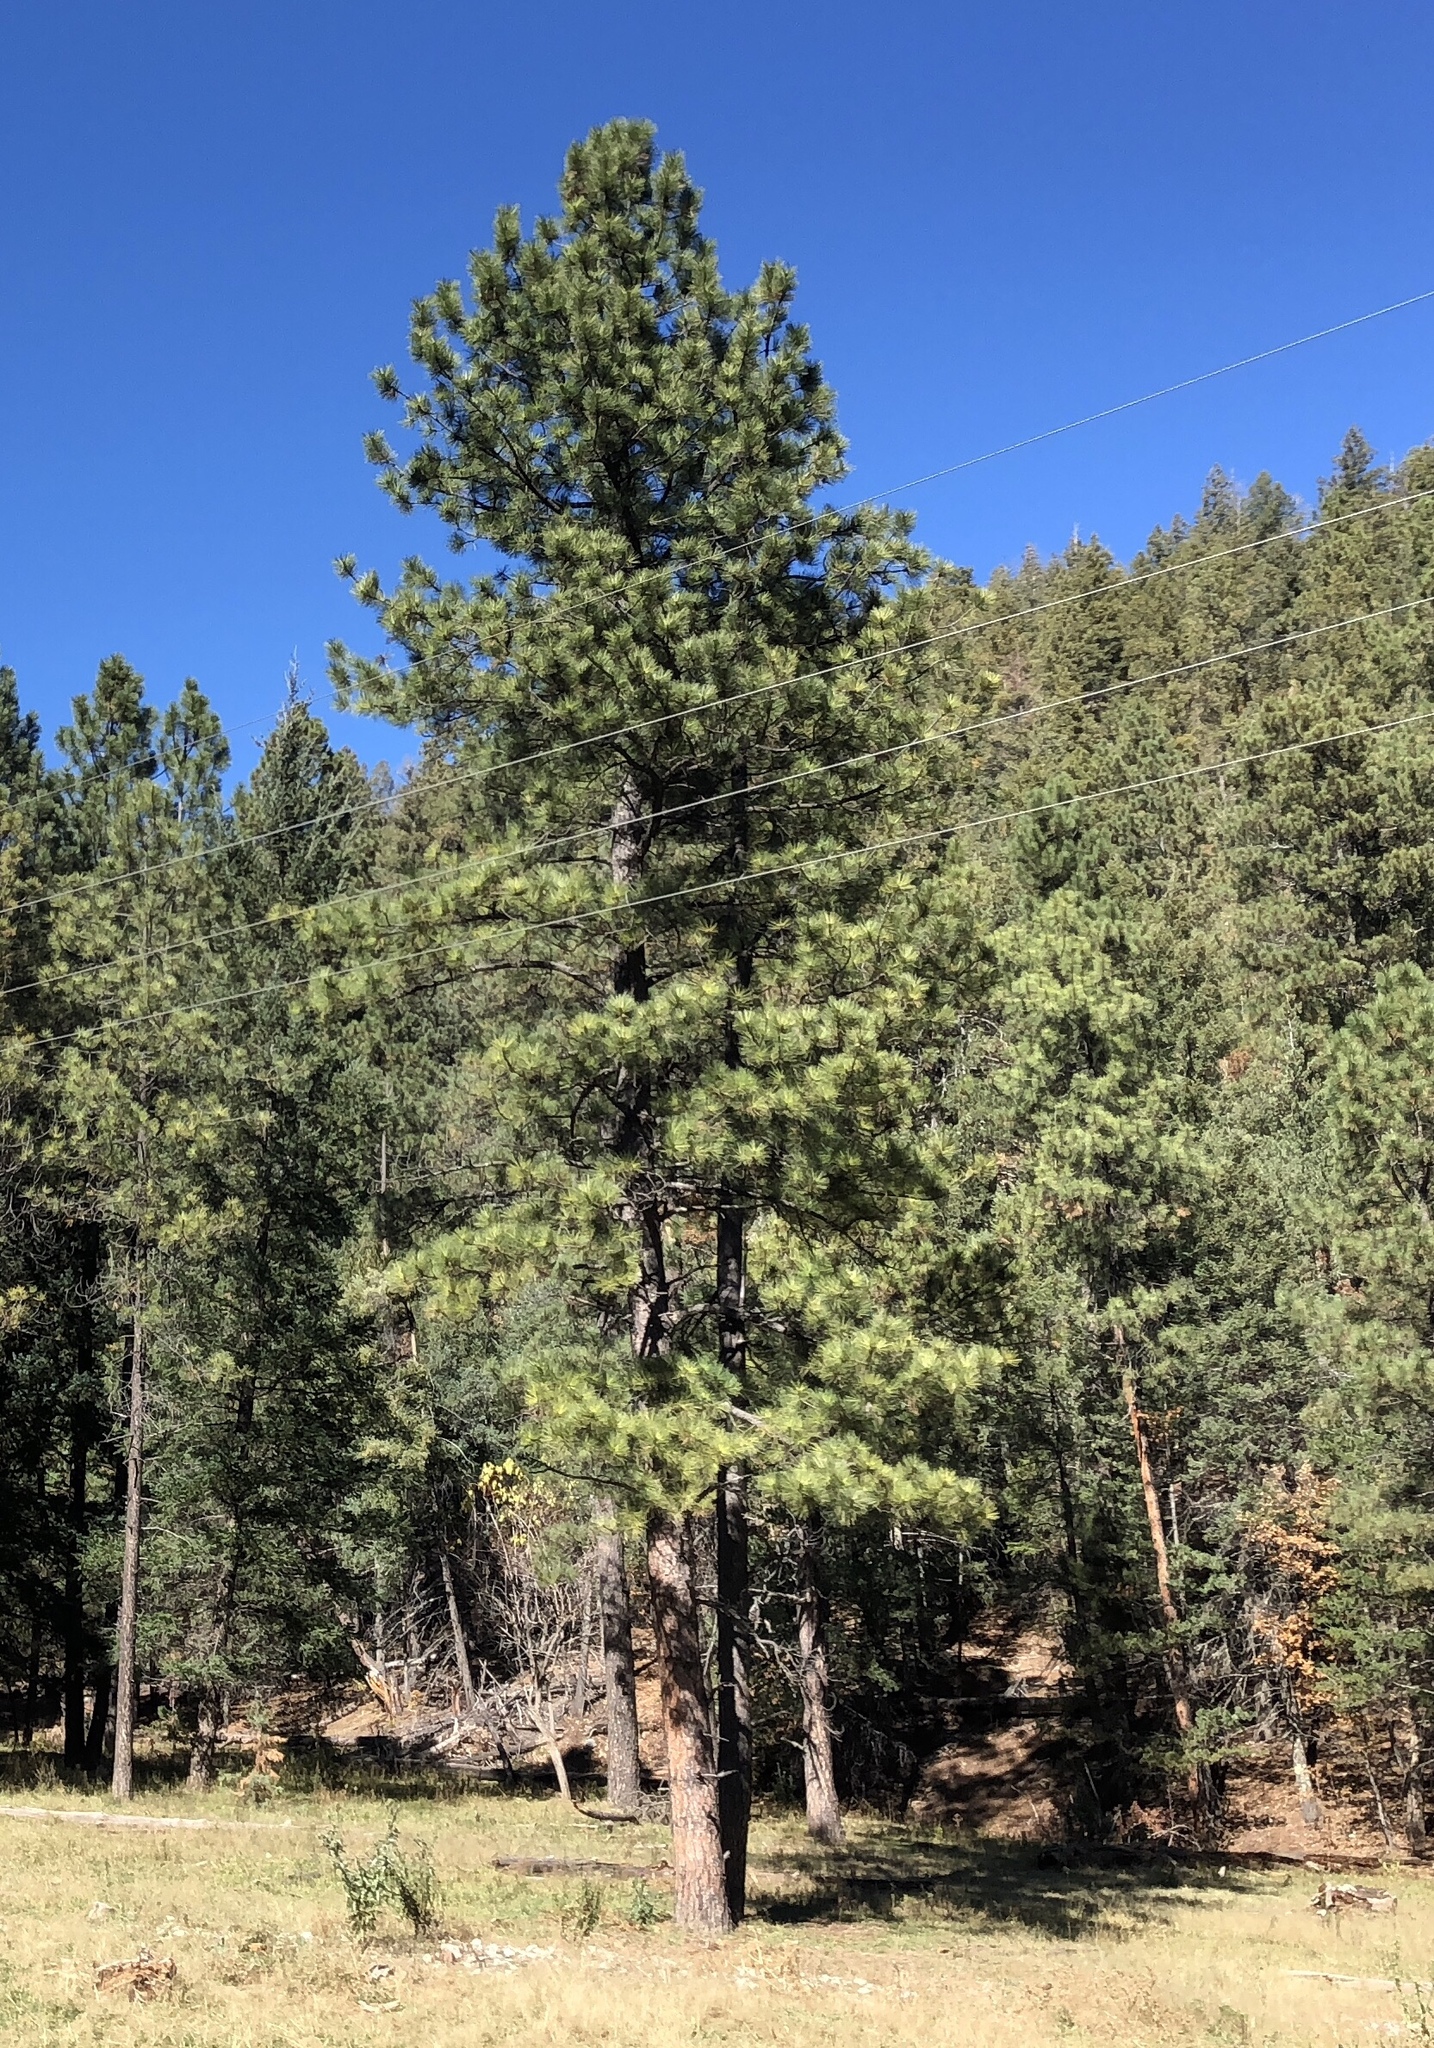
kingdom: Plantae
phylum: Tracheophyta
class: Pinopsida
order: Pinales
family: Pinaceae
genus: Pinus
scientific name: Pinus ponderosa
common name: Western yellow-pine
